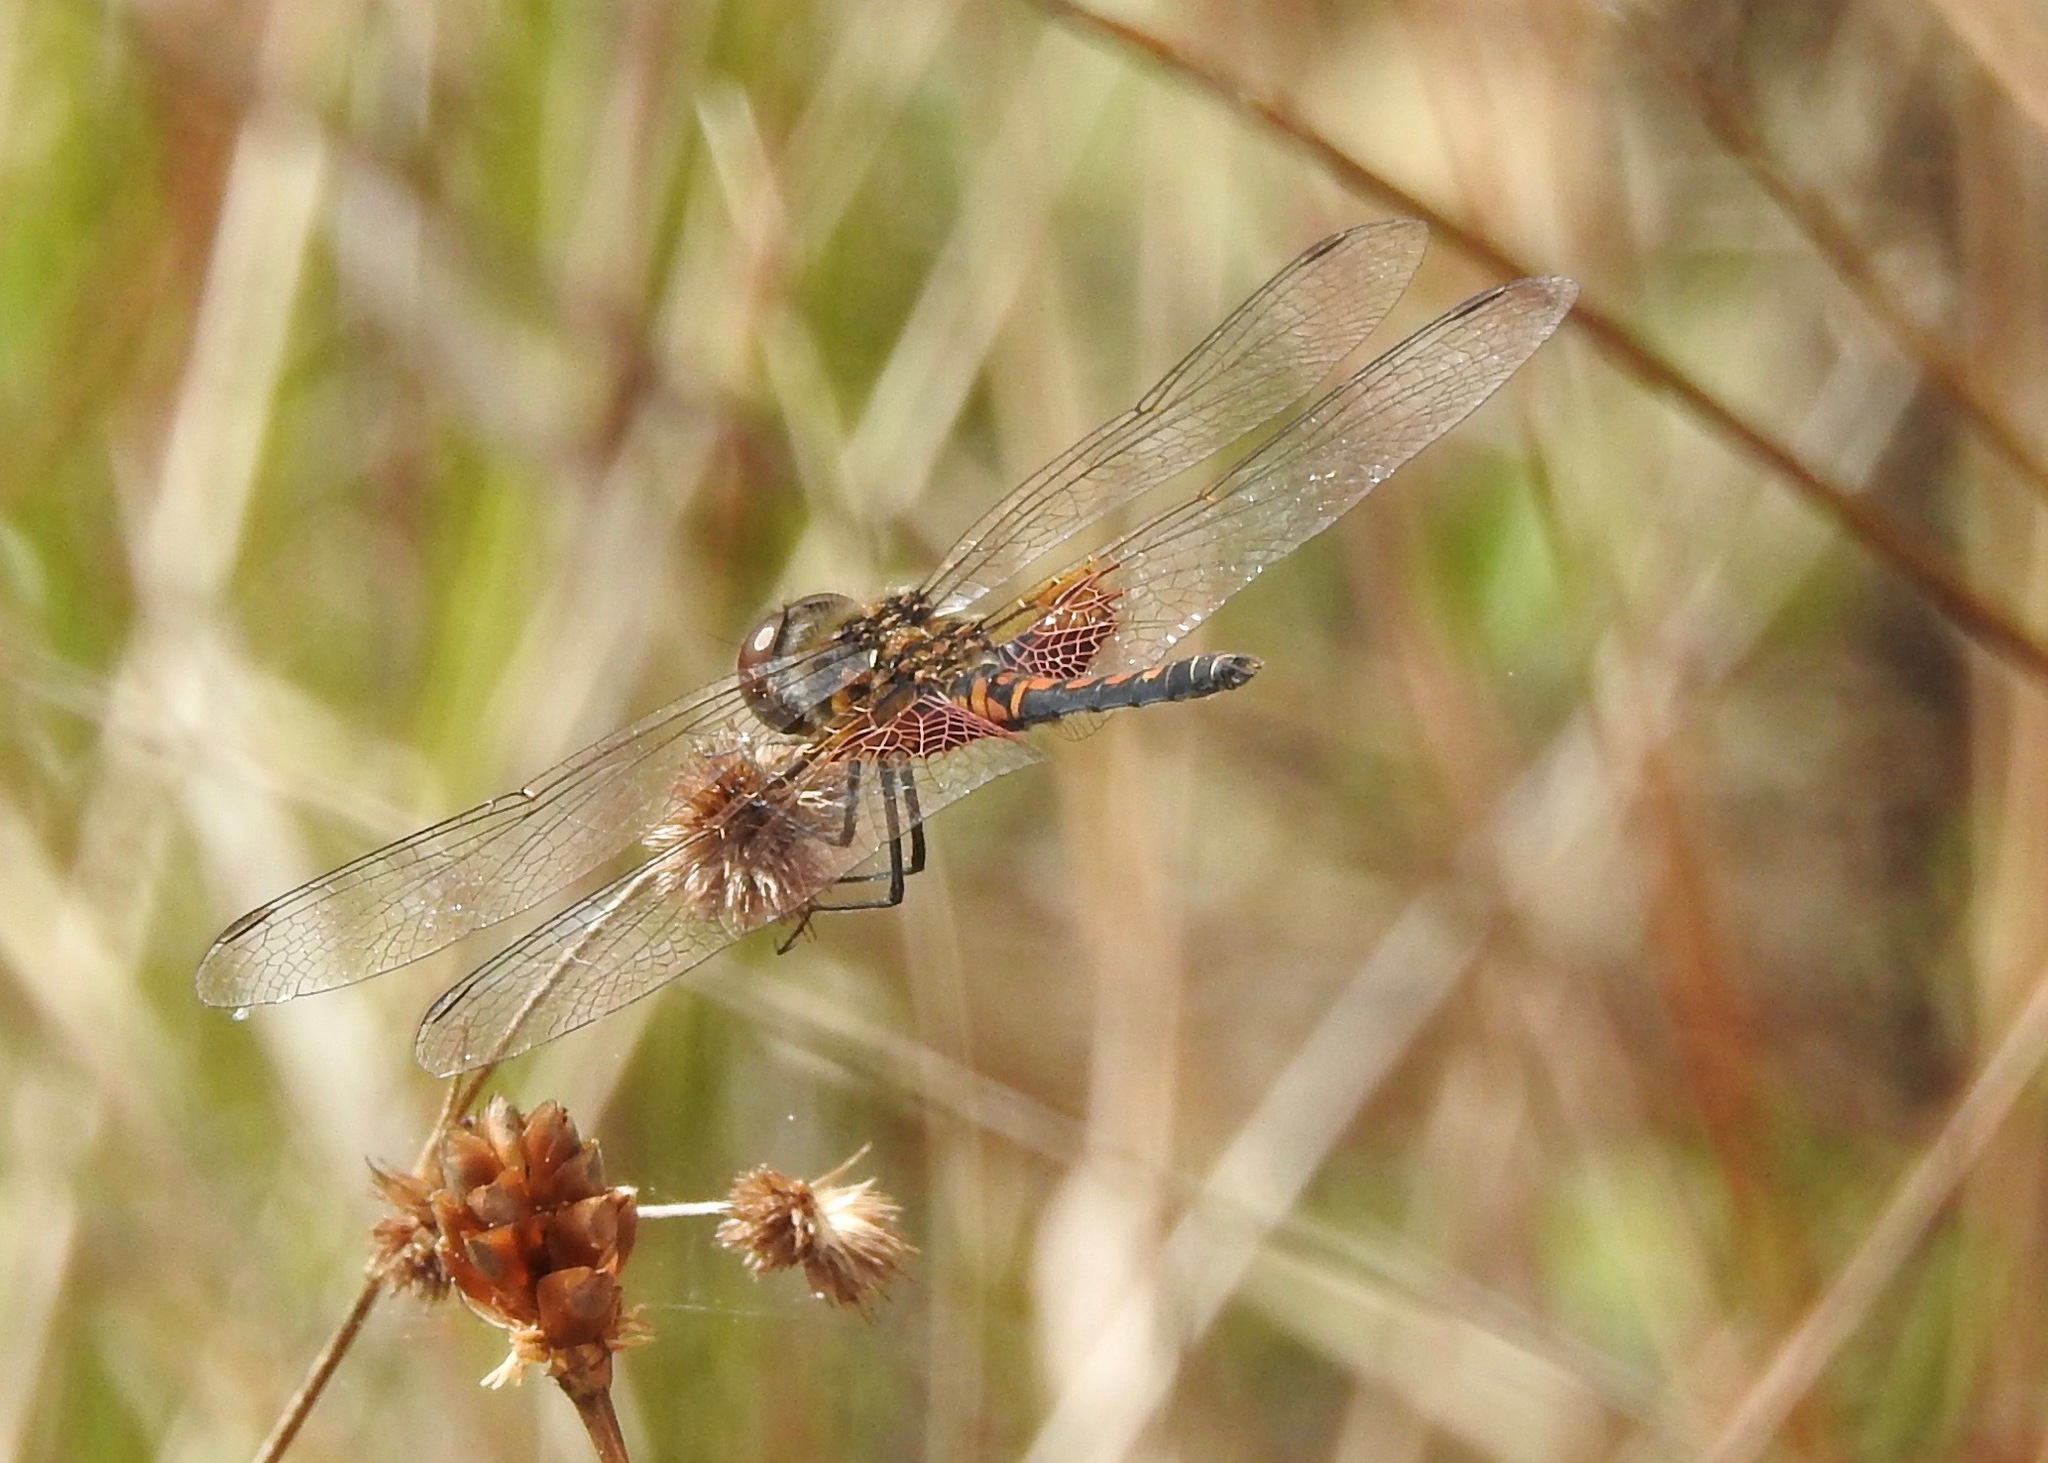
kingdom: Animalia
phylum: Arthropoda
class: Insecta
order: Odonata
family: Libellulidae
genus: Celithemis
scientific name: Celithemis ornata
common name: Ornate pennant
